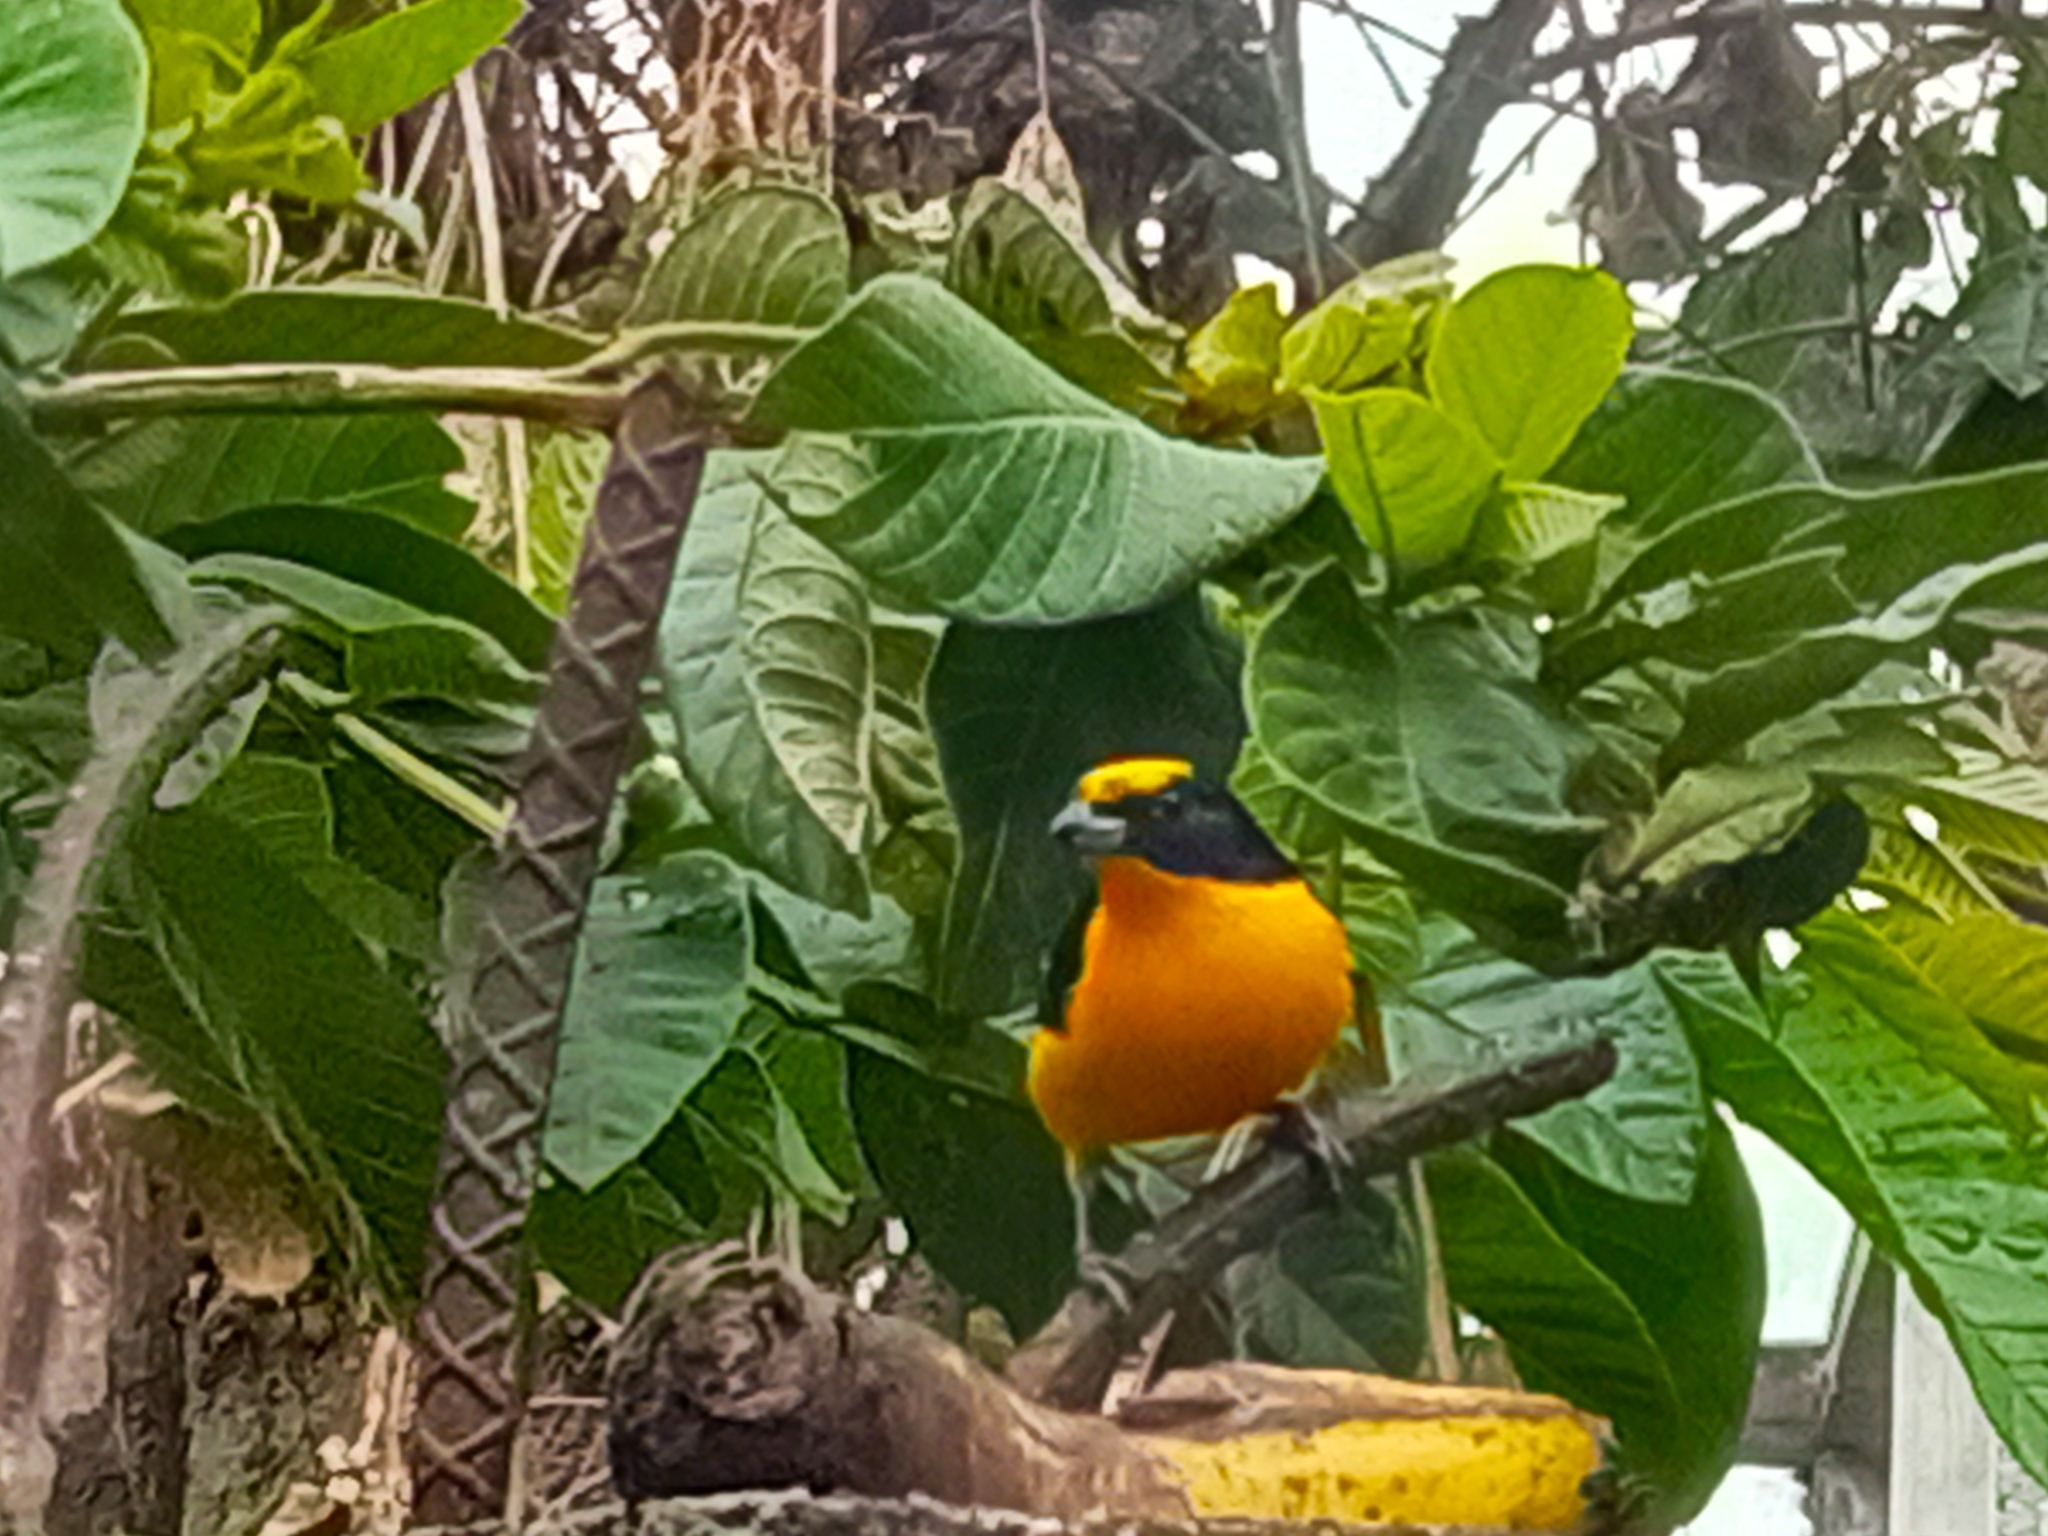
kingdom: Animalia
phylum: Chordata
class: Aves
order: Passeriformes
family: Fringillidae
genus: Euphonia
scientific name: Euphonia laniirostris
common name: Thick-billed euphonia
